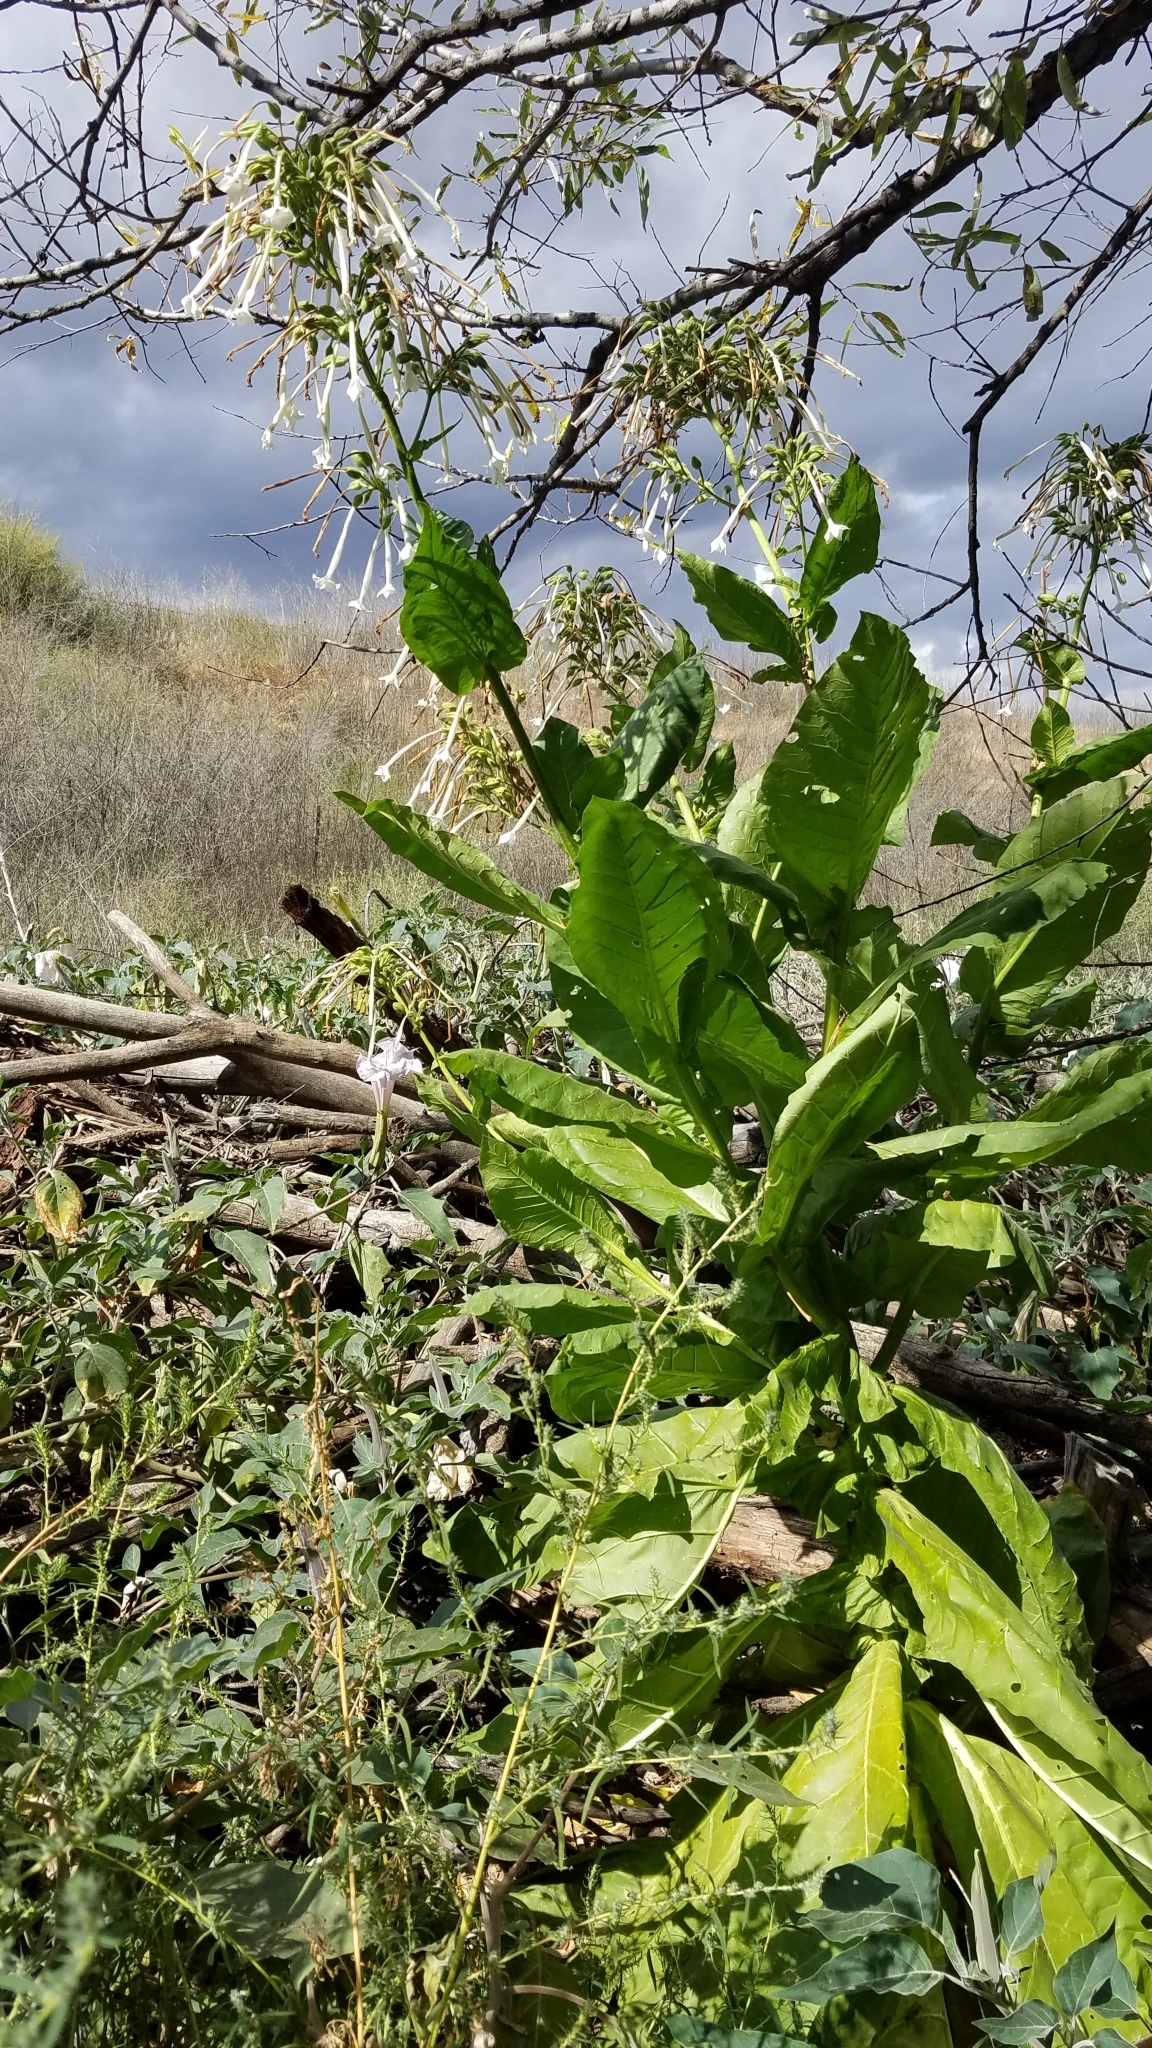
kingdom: Plantae
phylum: Tracheophyta
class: Magnoliopsida
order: Caryophyllales
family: Polygonaceae
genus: Rumex
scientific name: Rumex crispus
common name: Curled dock
